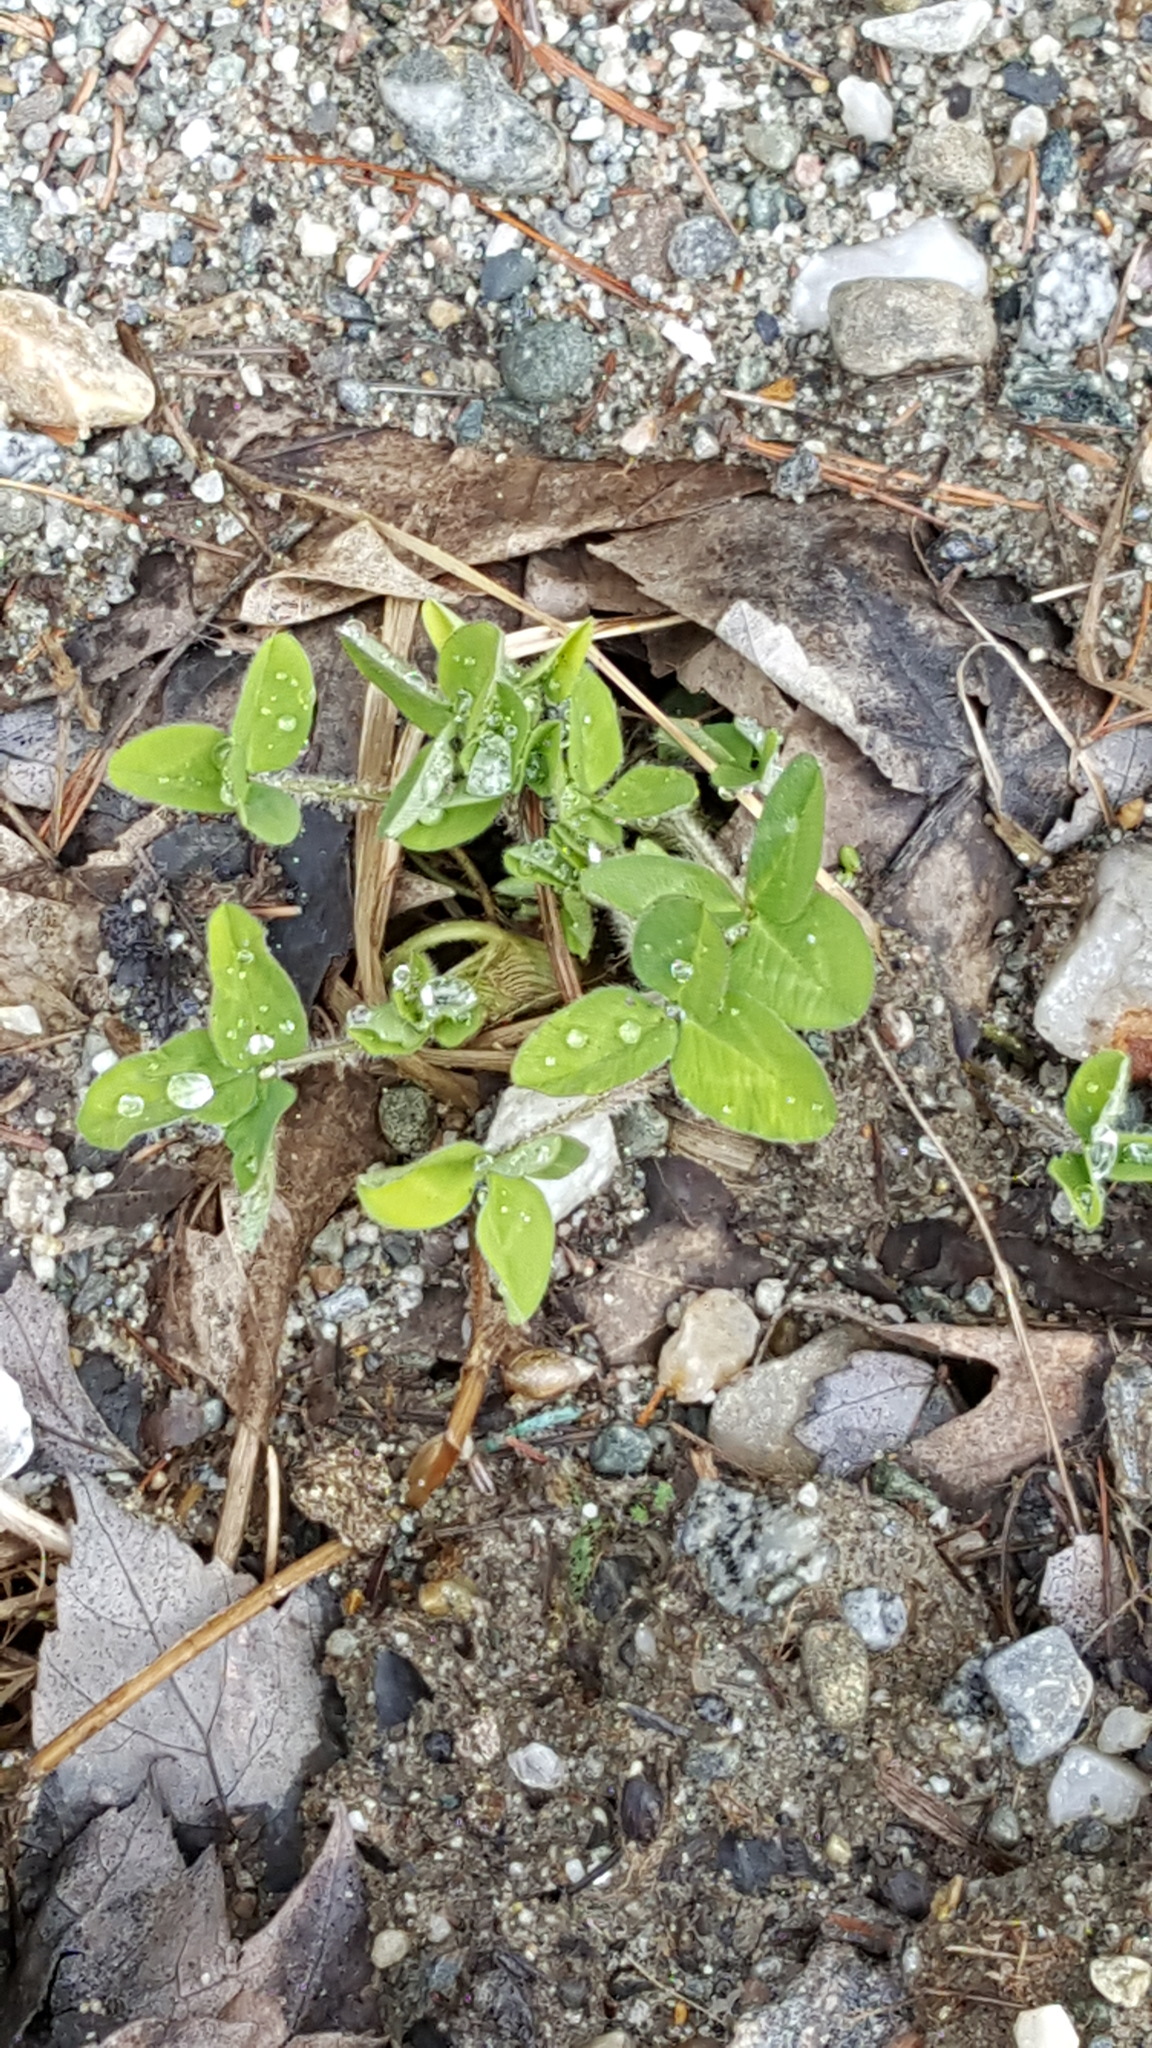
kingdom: Plantae
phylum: Tracheophyta
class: Magnoliopsida
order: Fabales
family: Fabaceae
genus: Trifolium
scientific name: Trifolium pratense
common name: Red clover
